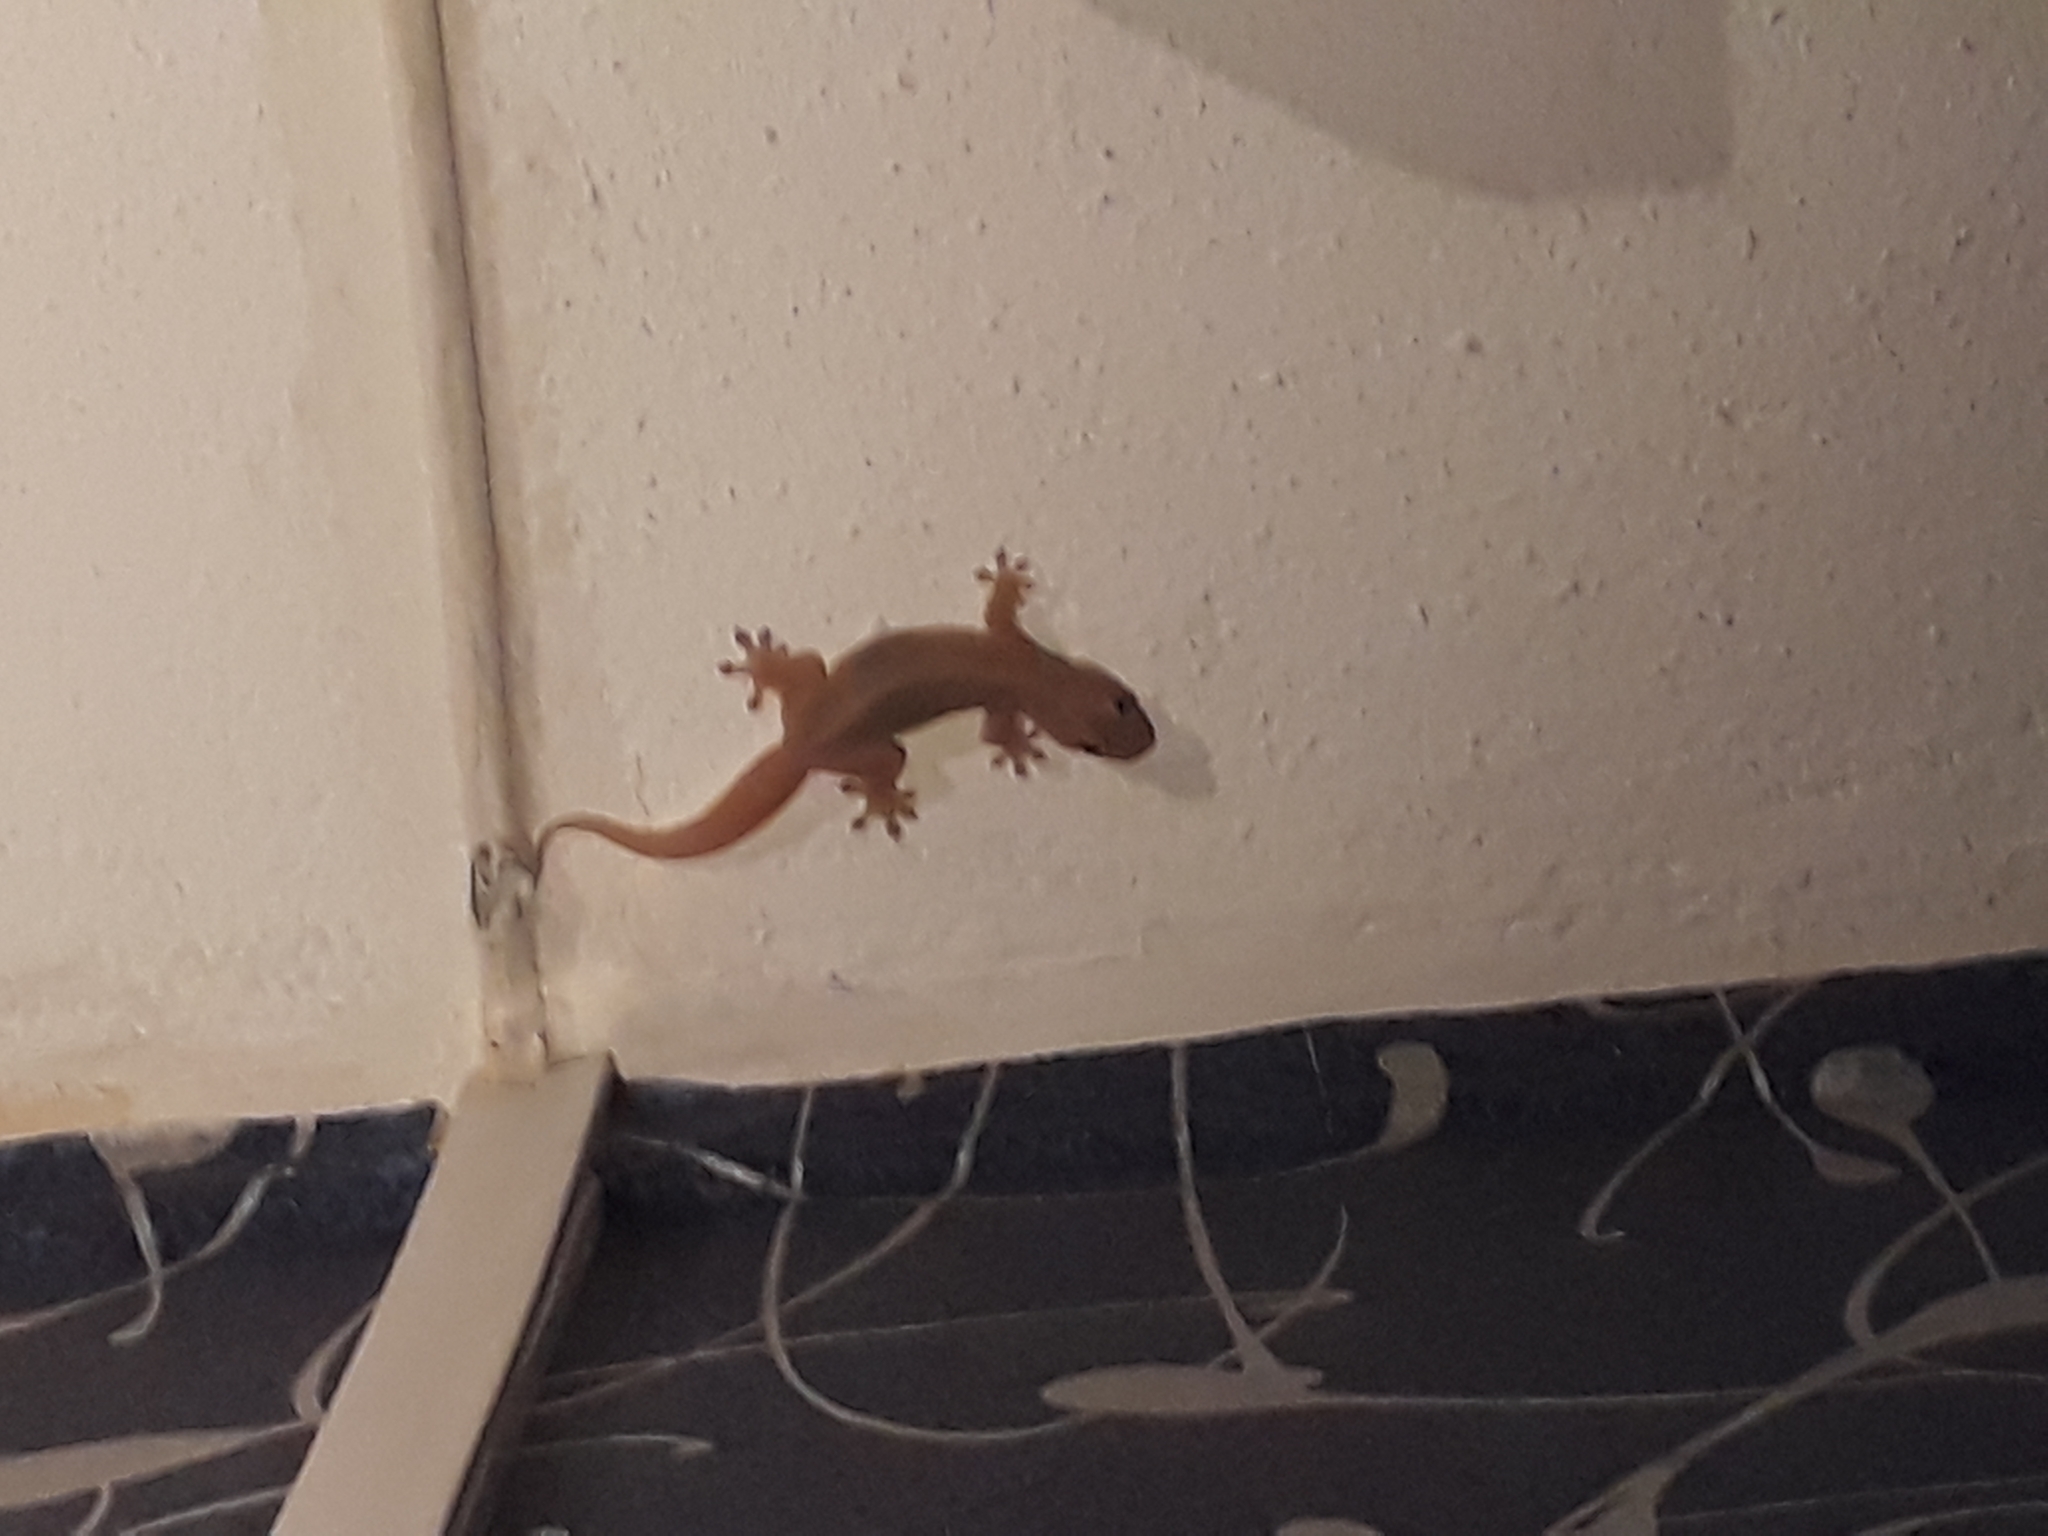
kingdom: Animalia
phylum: Chordata
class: Squamata
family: Gekkonidae
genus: Gehyra
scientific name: Gehyra mutilata
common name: Stump-toed gecko
